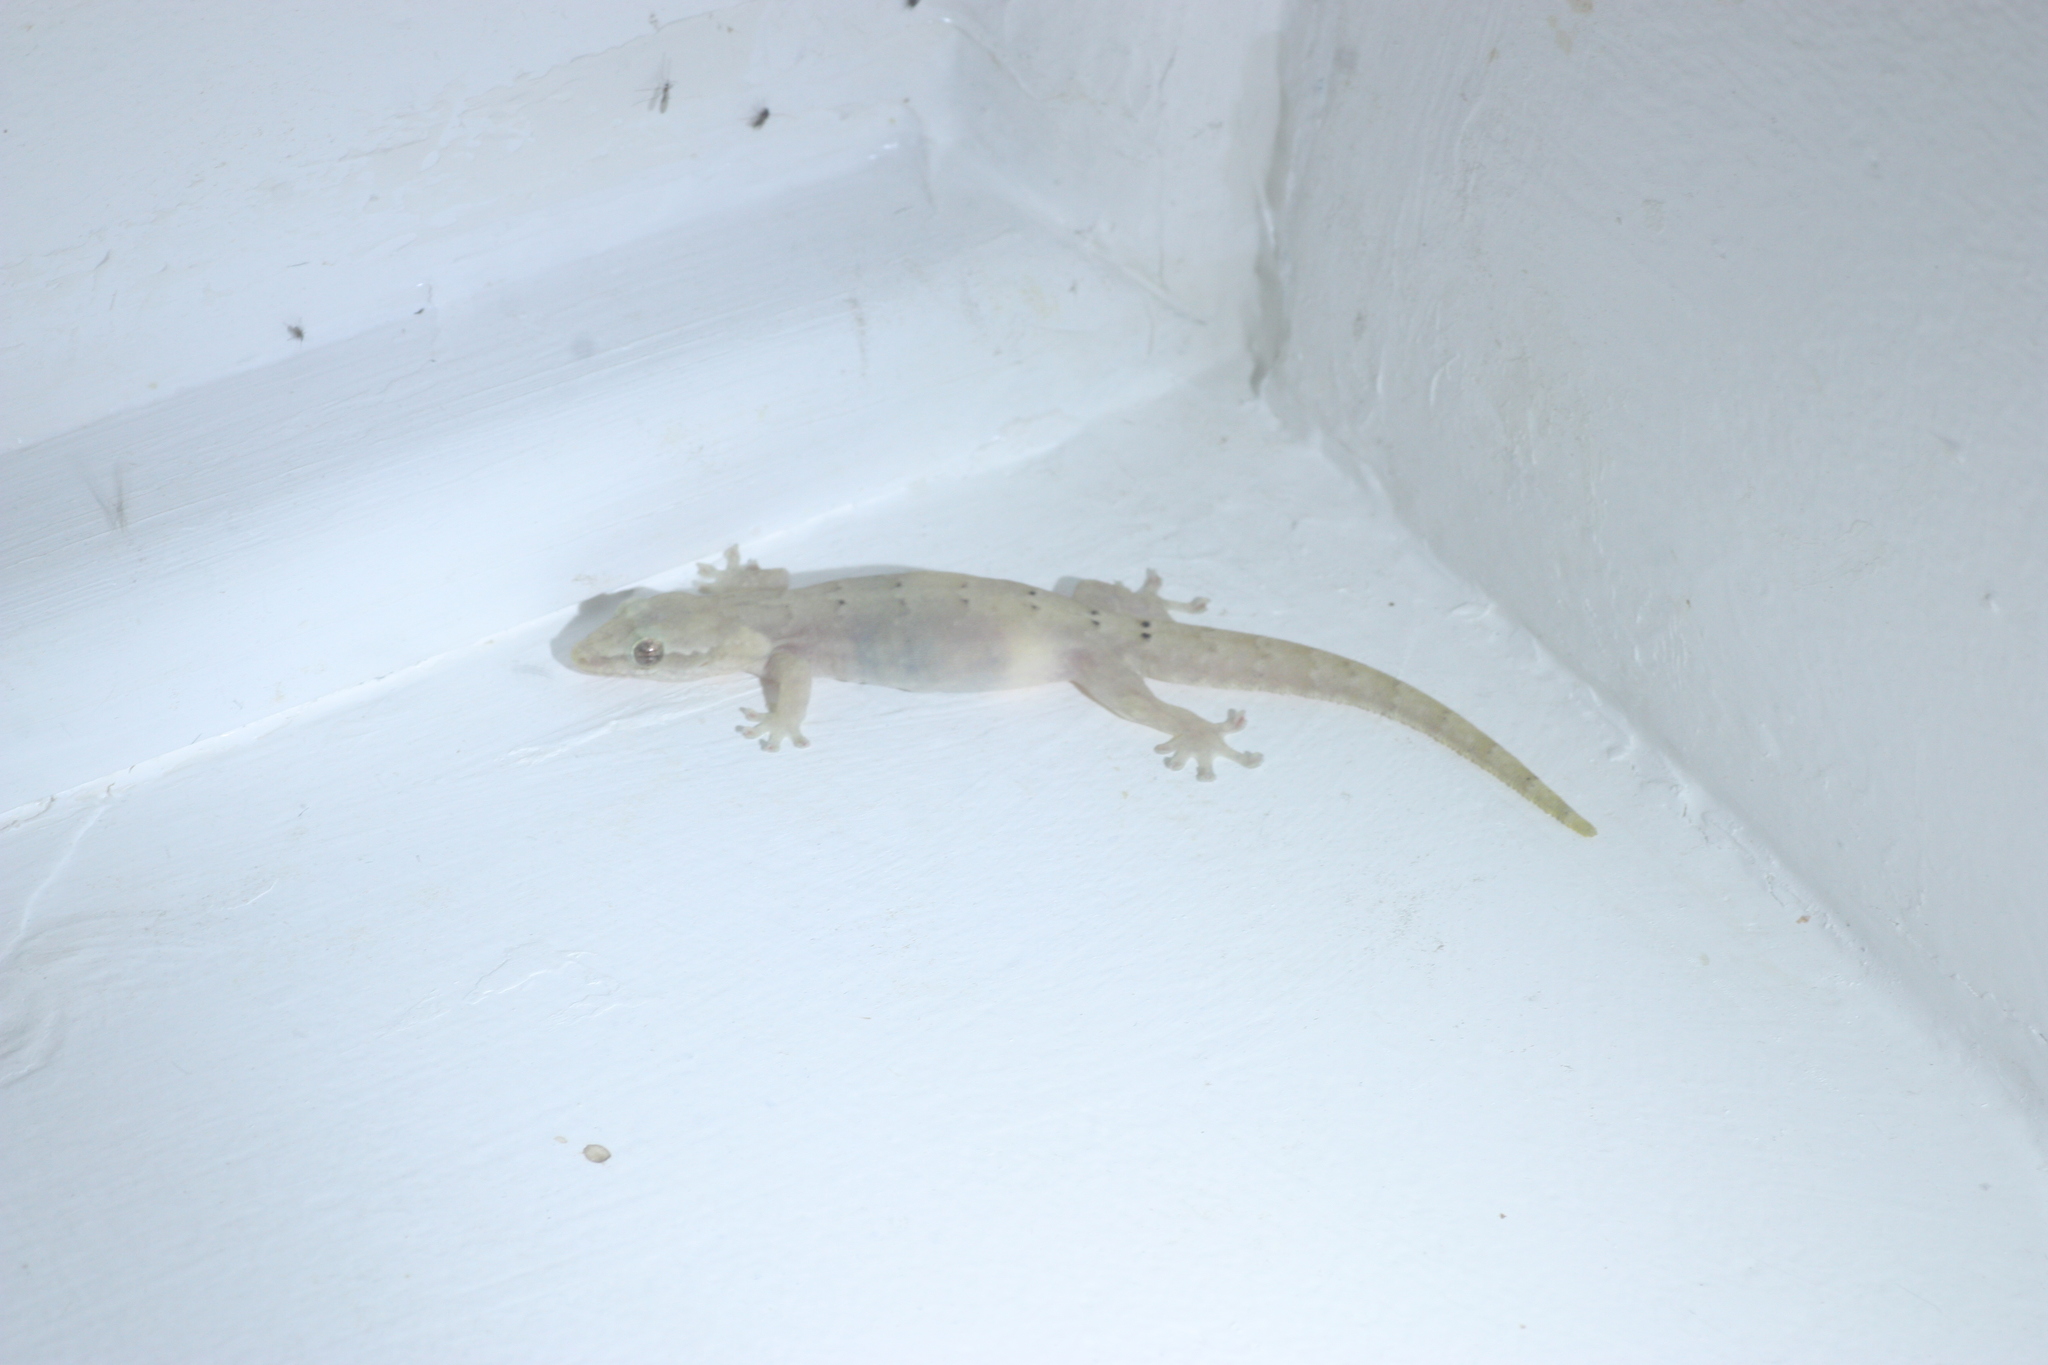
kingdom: Animalia
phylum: Chordata
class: Squamata
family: Gekkonidae
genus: Lepidodactylus
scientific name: Lepidodactylus lugubris
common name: Mourning gecko
